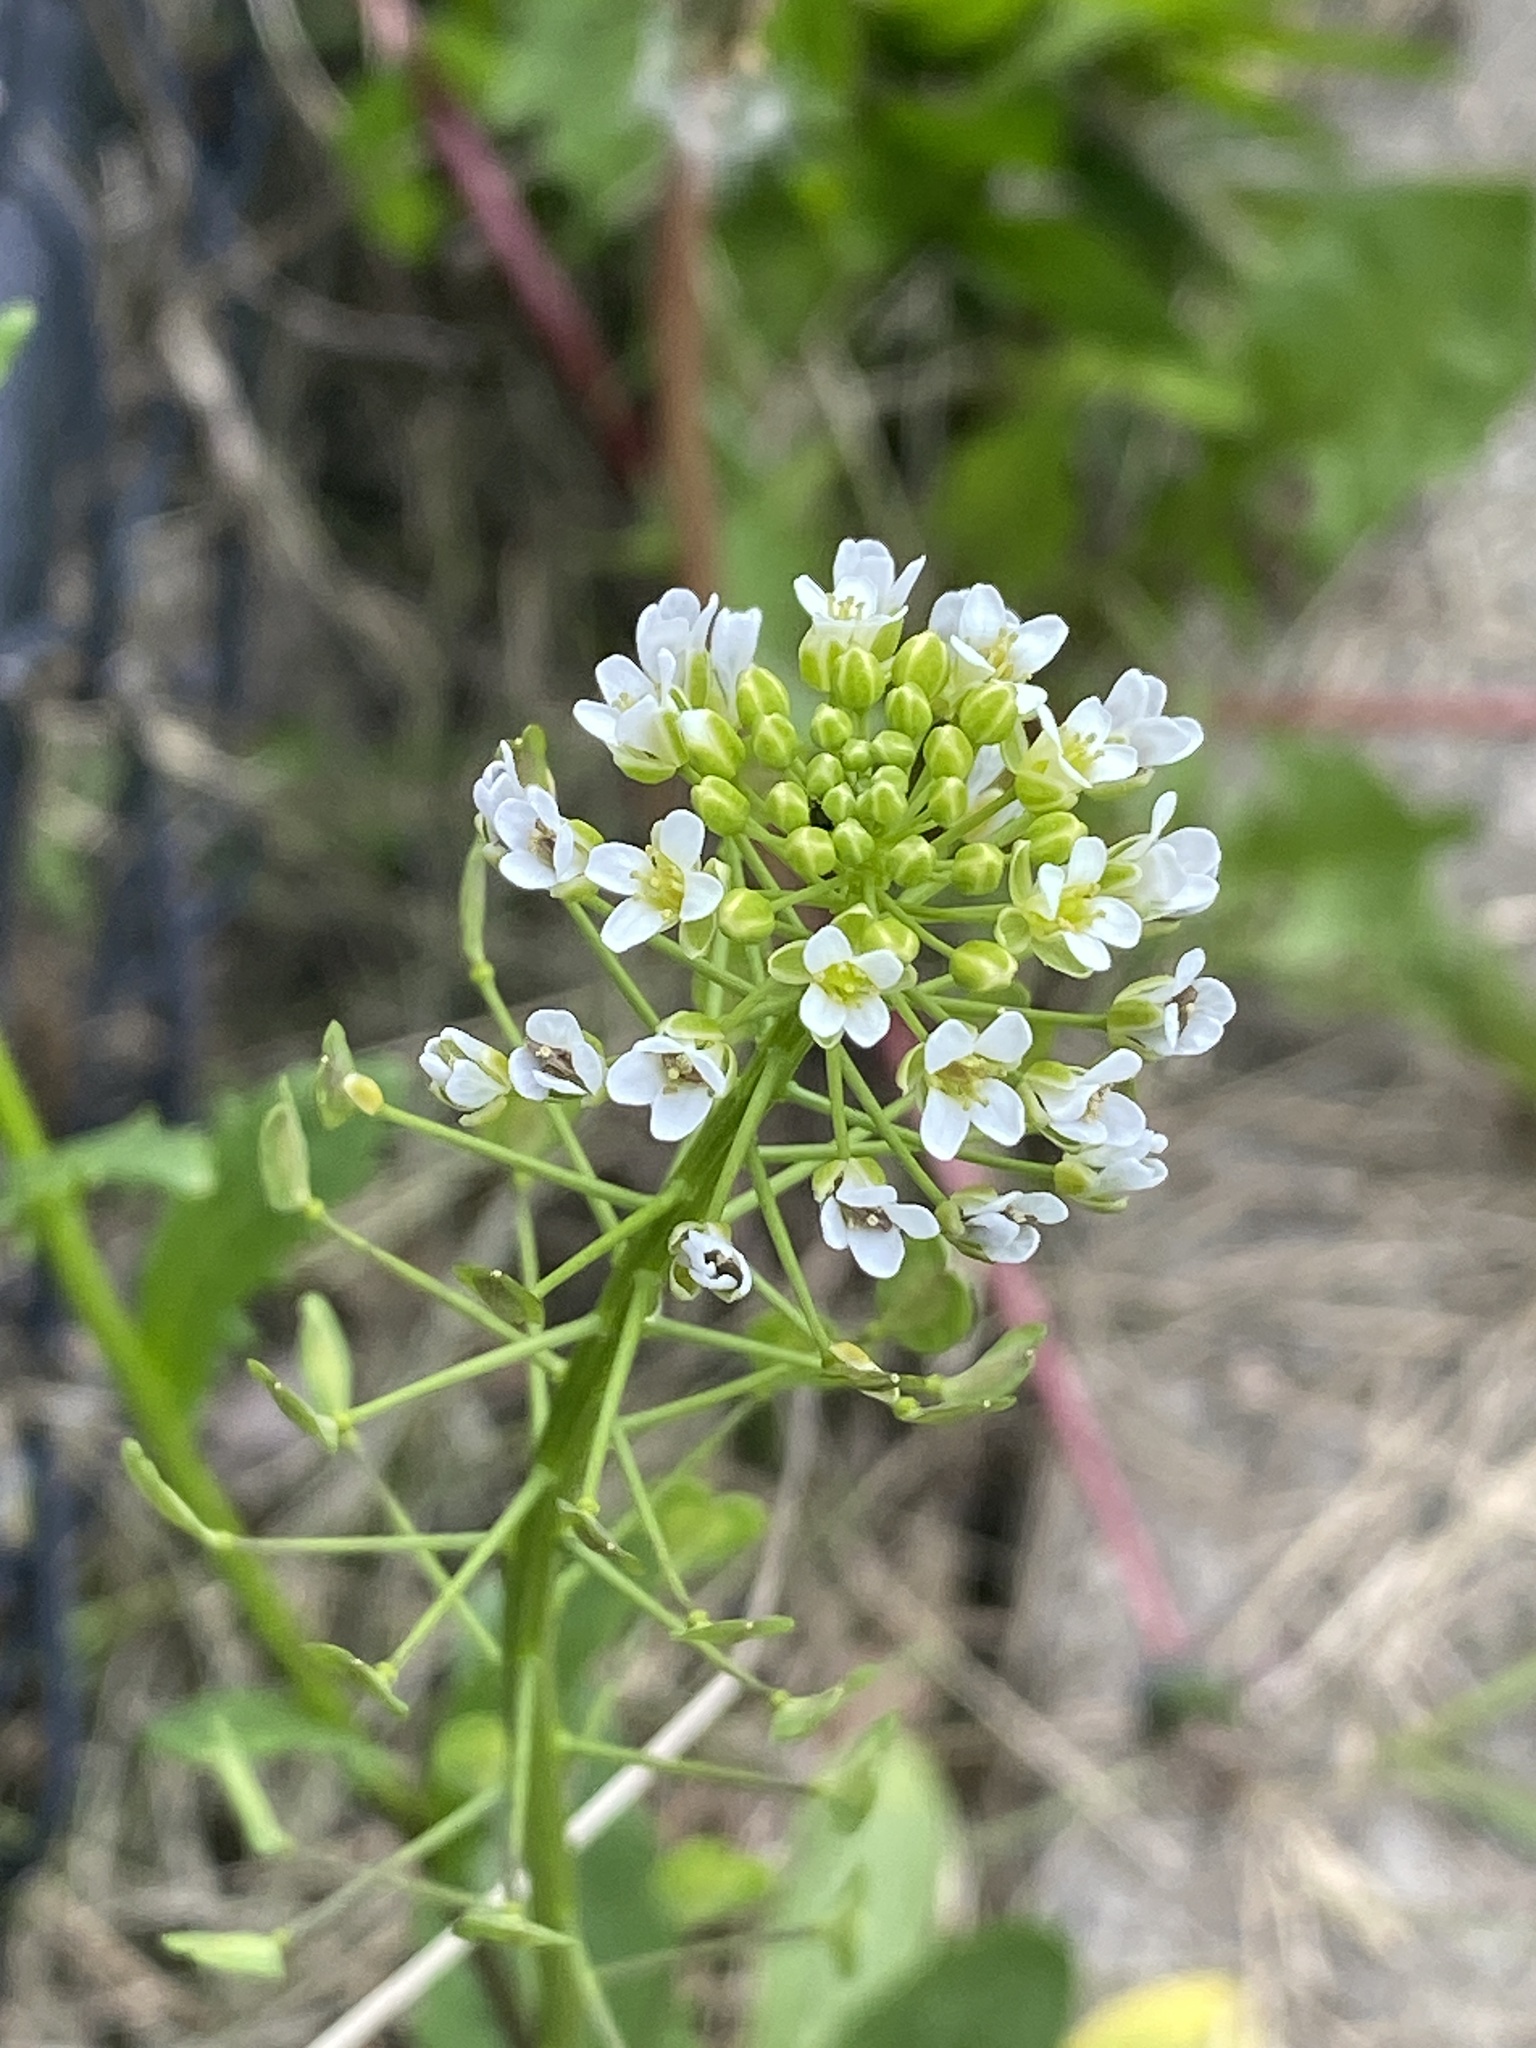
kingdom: Plantae
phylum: Tracheophyta
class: Magnoliopsida
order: Brassicales
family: Brassicaceae
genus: Thlaspi
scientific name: Thlaspi arvense
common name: Field pennycress
